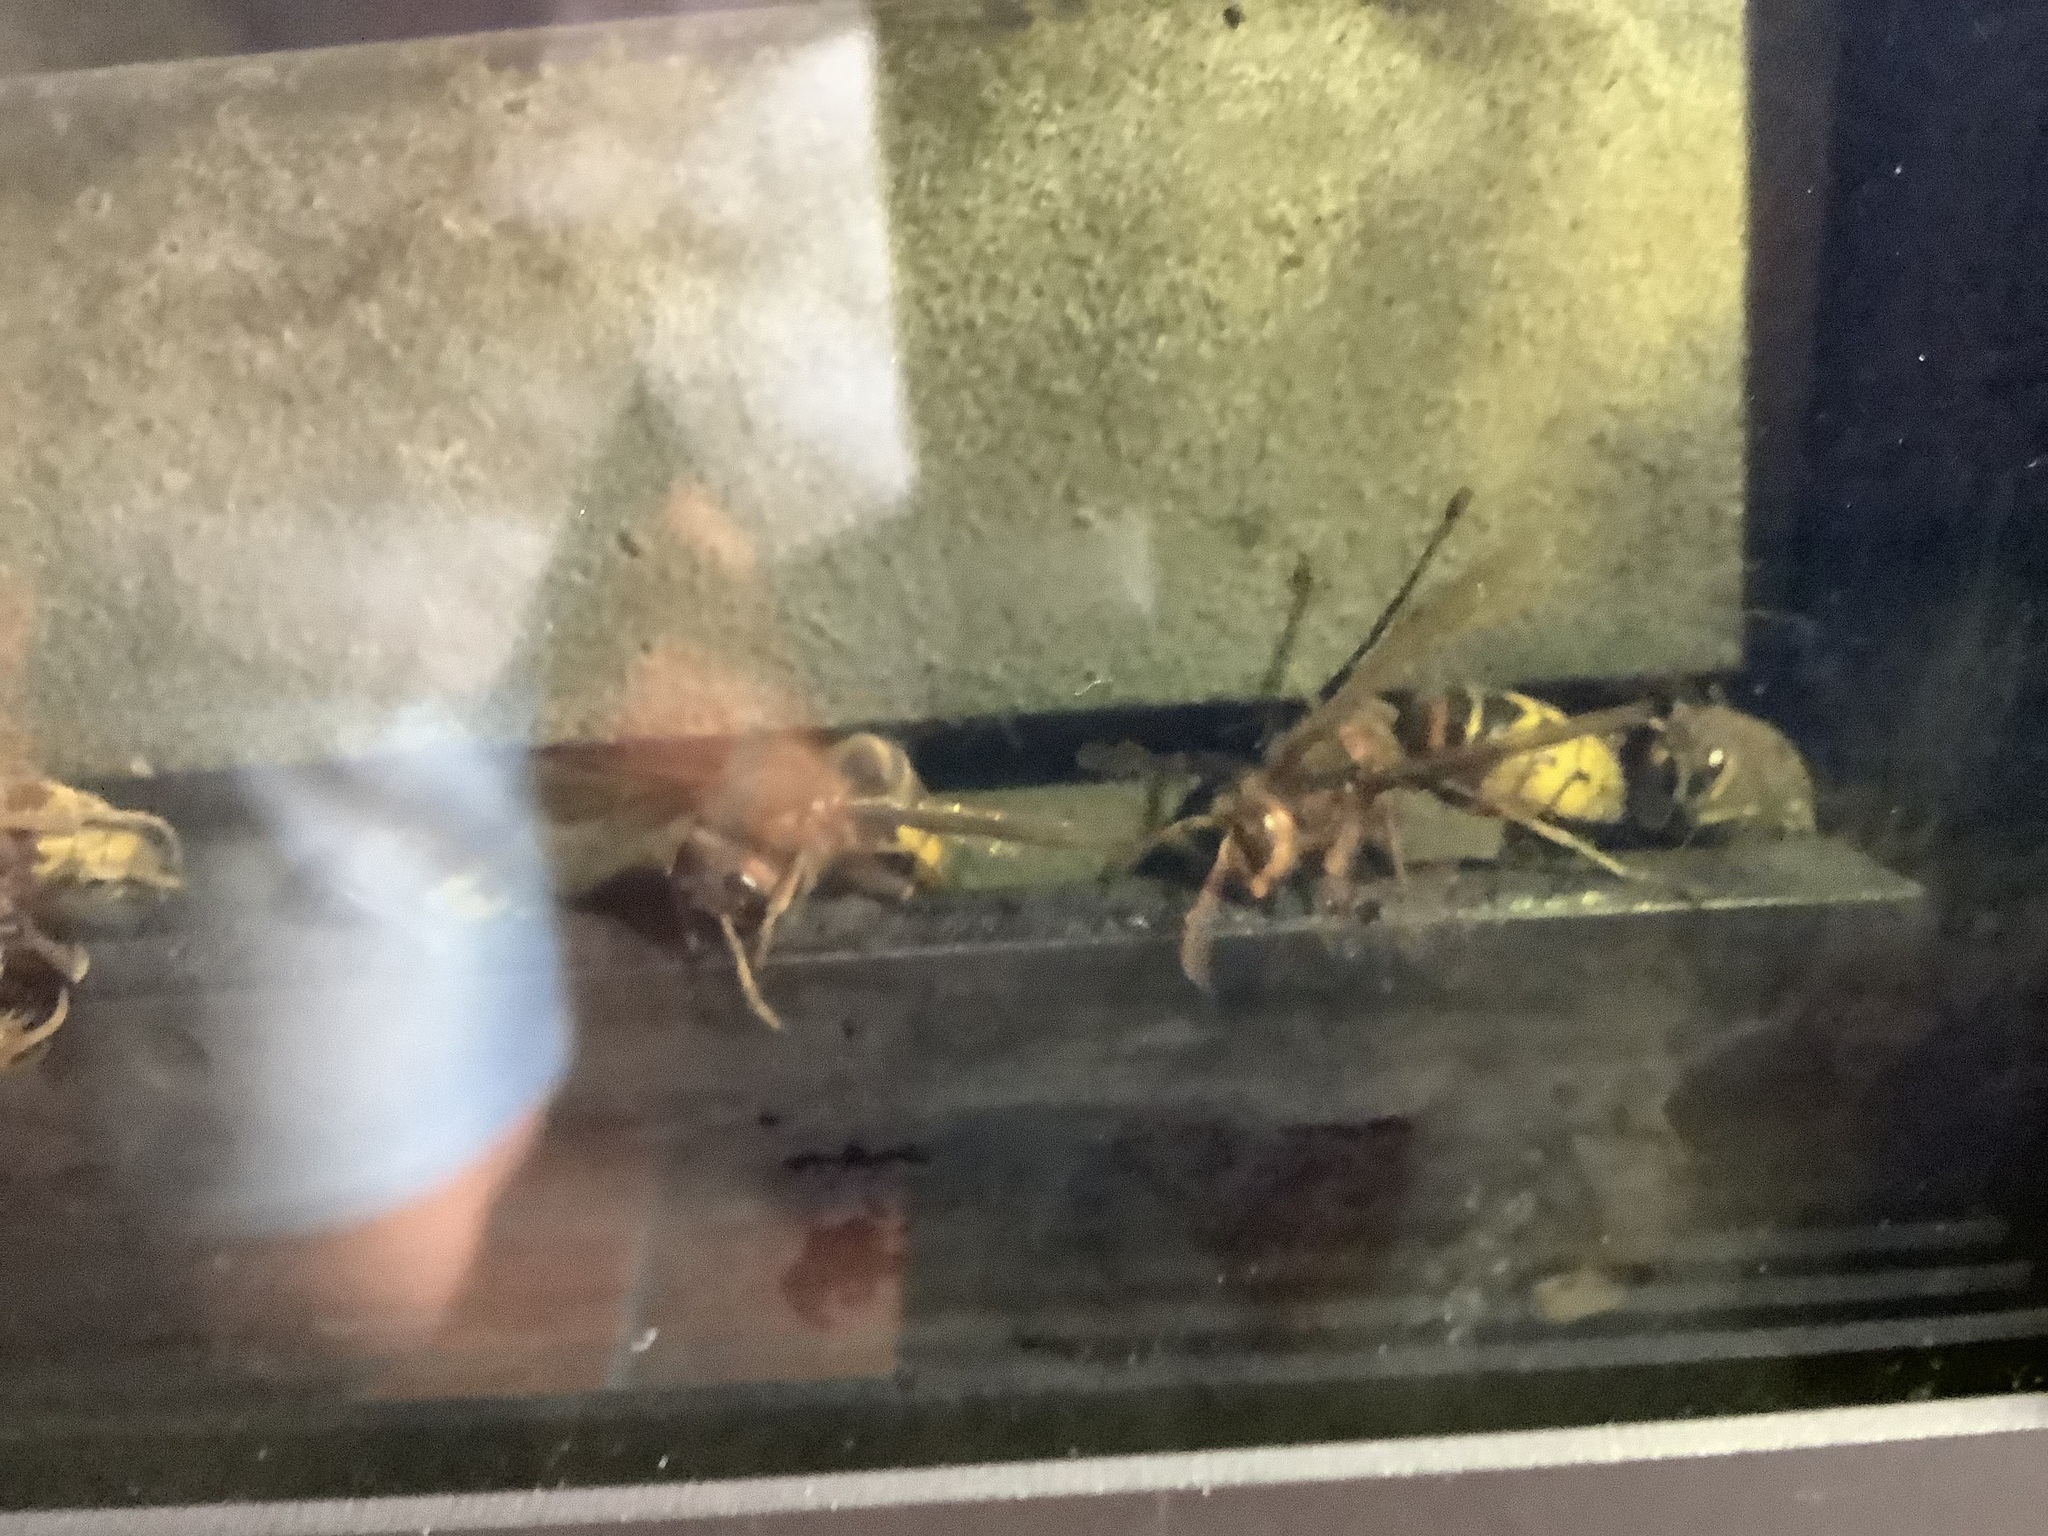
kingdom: Animalia
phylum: Arthropoda
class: Insecta
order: Hymenoptera
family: Vespidae
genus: Vespa
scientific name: Vespa crabro
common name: Hornet
